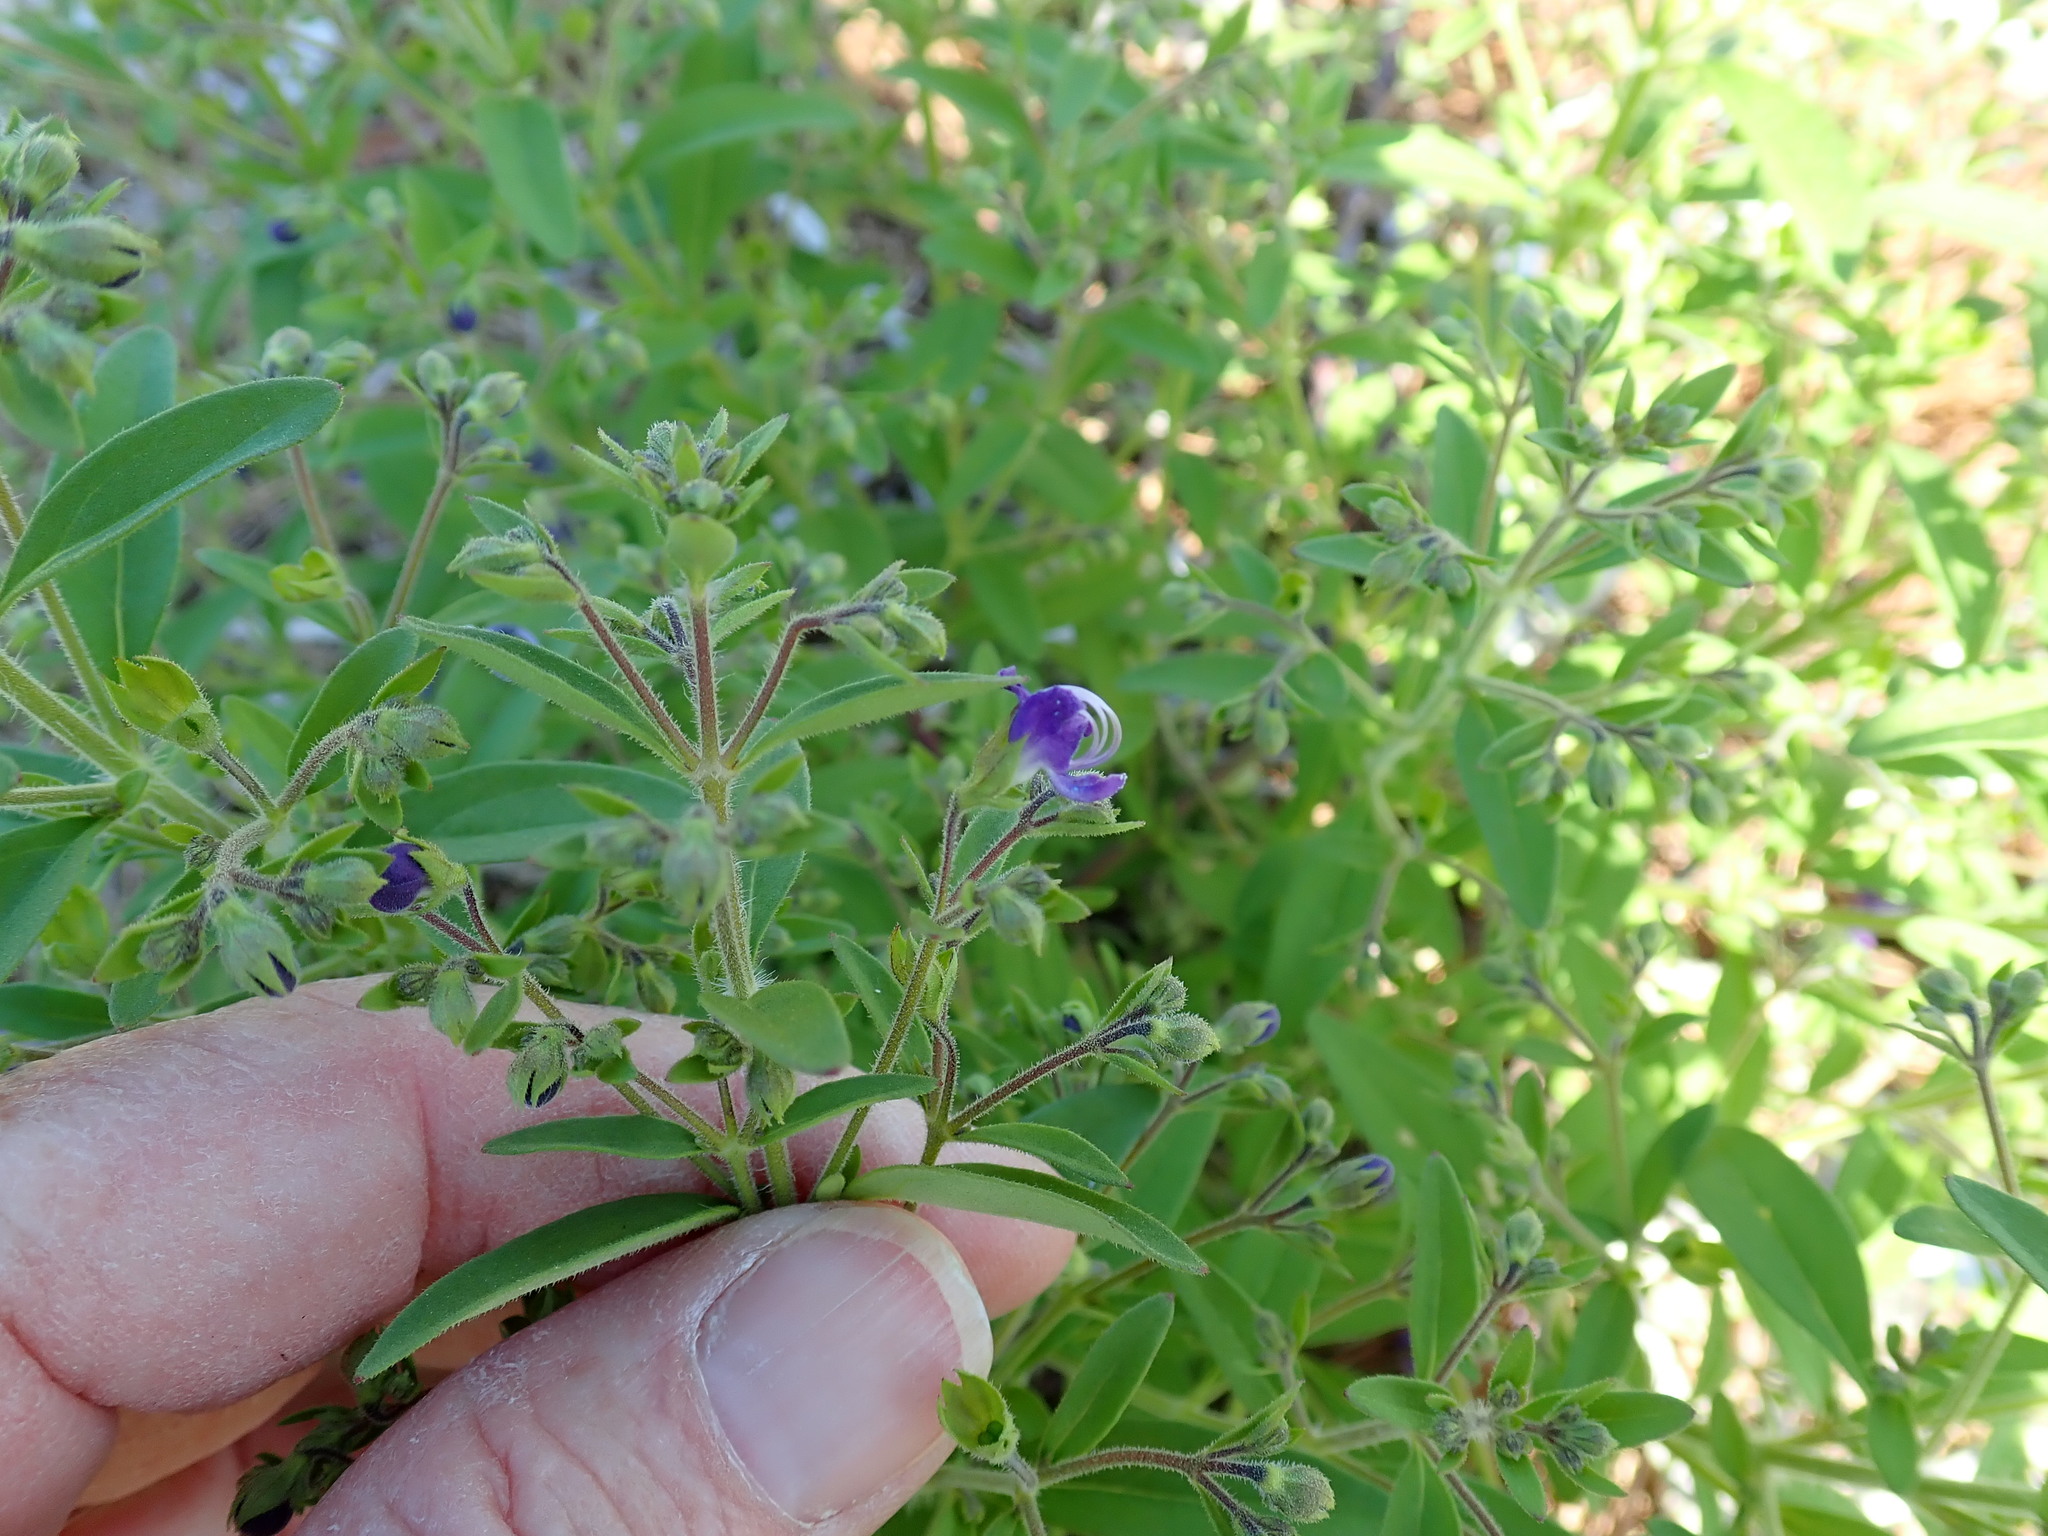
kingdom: Plantae
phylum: Tracheophyta
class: Magnoliopsida
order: Lamiales
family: Lamiaceae
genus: Trichostema
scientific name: Trichostema dichotomum
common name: Bastard pennyroyal
